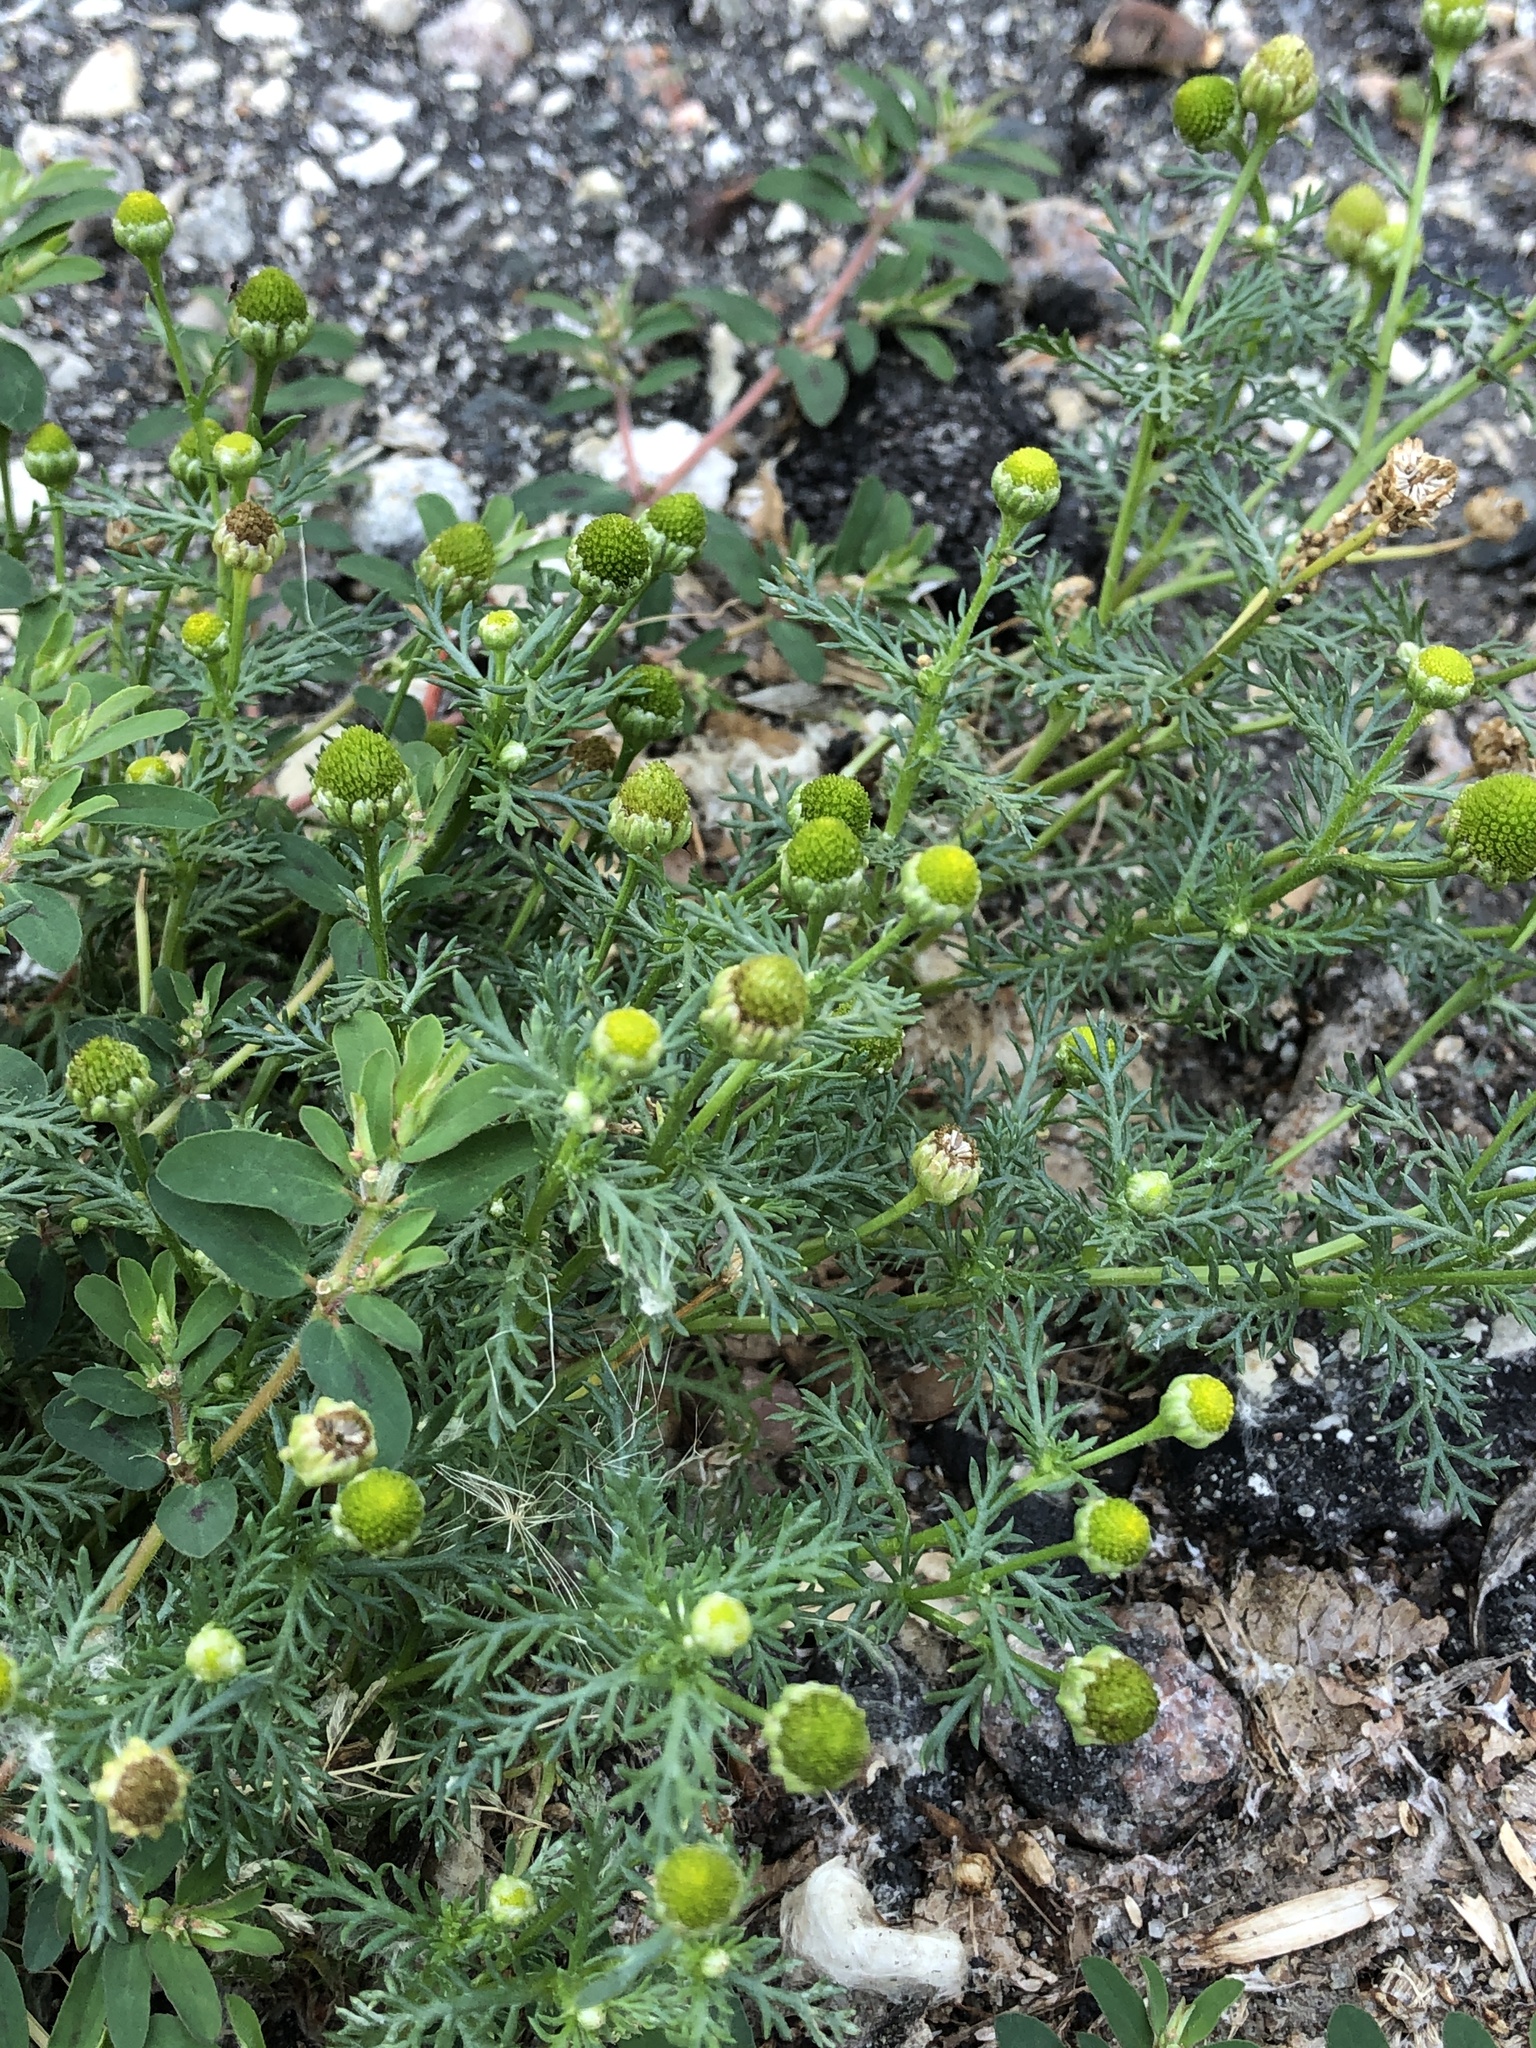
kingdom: Plantae
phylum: Tracheophyta
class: Magnoliopsida
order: Asterales
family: Asteraceae
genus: Matricaria
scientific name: Matricaria discoidea
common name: Disc mayweed
